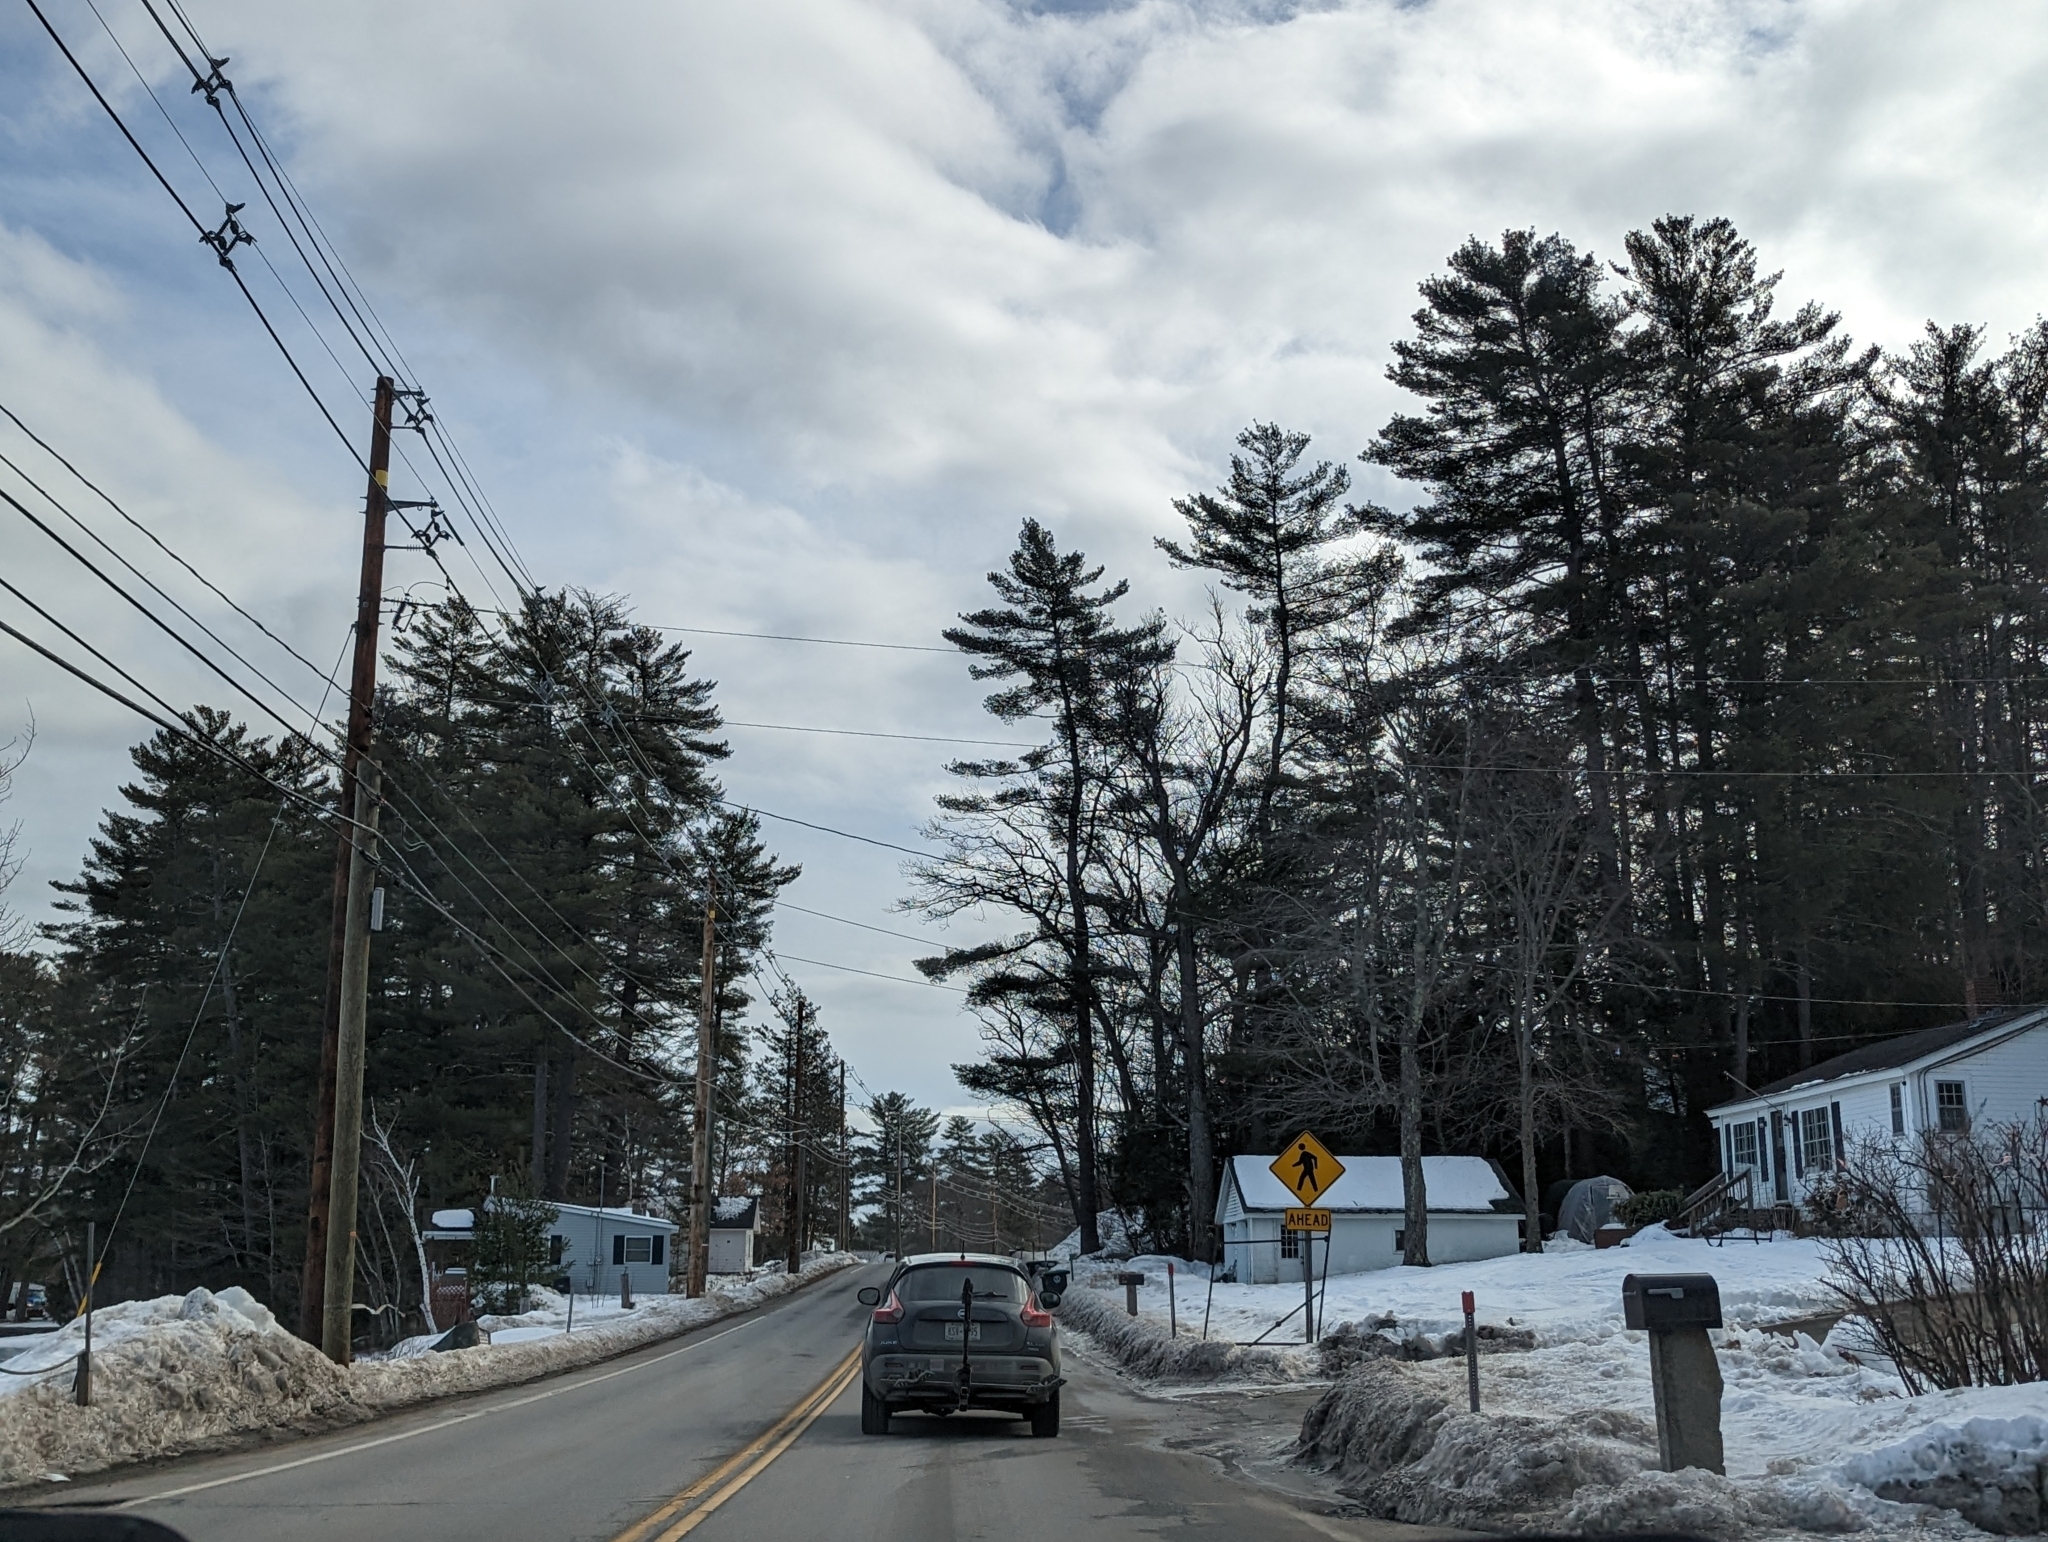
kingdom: Plantae
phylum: Tracheophyta
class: Pinopsida
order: Pinales
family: Pinaceae
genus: Pinus
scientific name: Pinus strobus
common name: Weymouth pine
